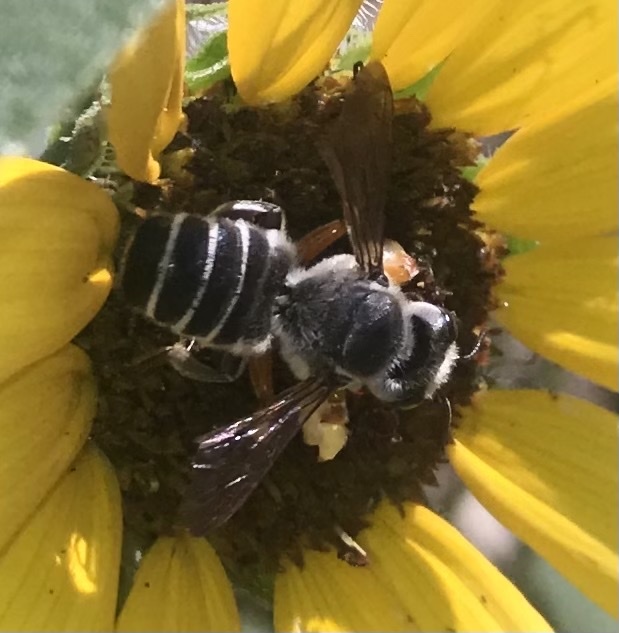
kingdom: Animalia
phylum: Arthropoda
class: Insecta
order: Hymenoptera
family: Megachilidae
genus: Megachile
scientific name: Megachile policaris
